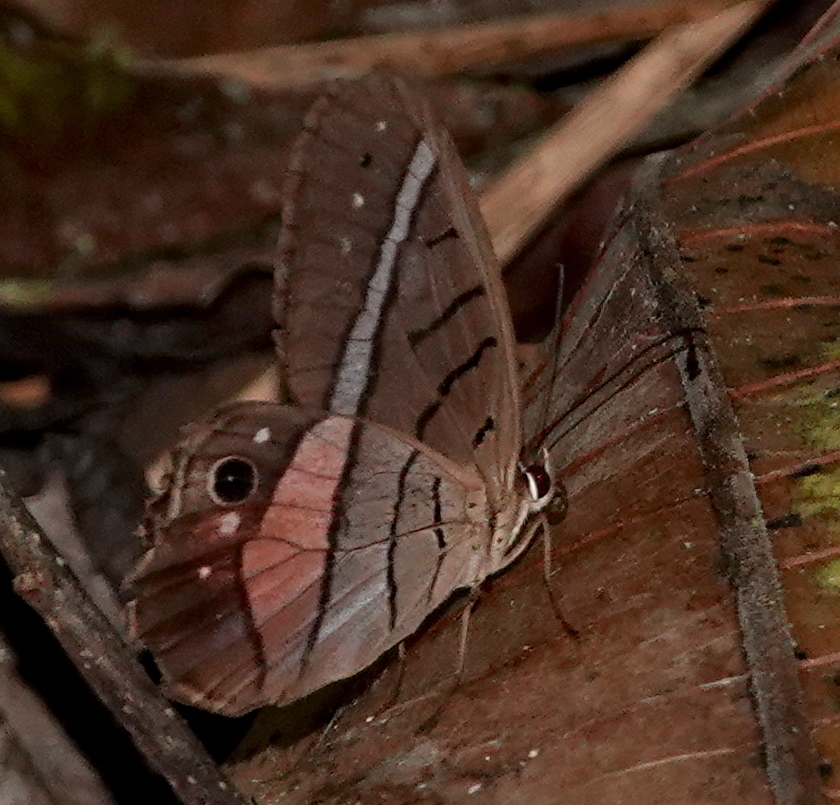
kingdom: Animalia
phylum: Arthropoda
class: Insecta
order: Lepidoptera
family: Nymphalidae
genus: Pierella
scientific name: Pierella helvina
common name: Red-washed satyr
